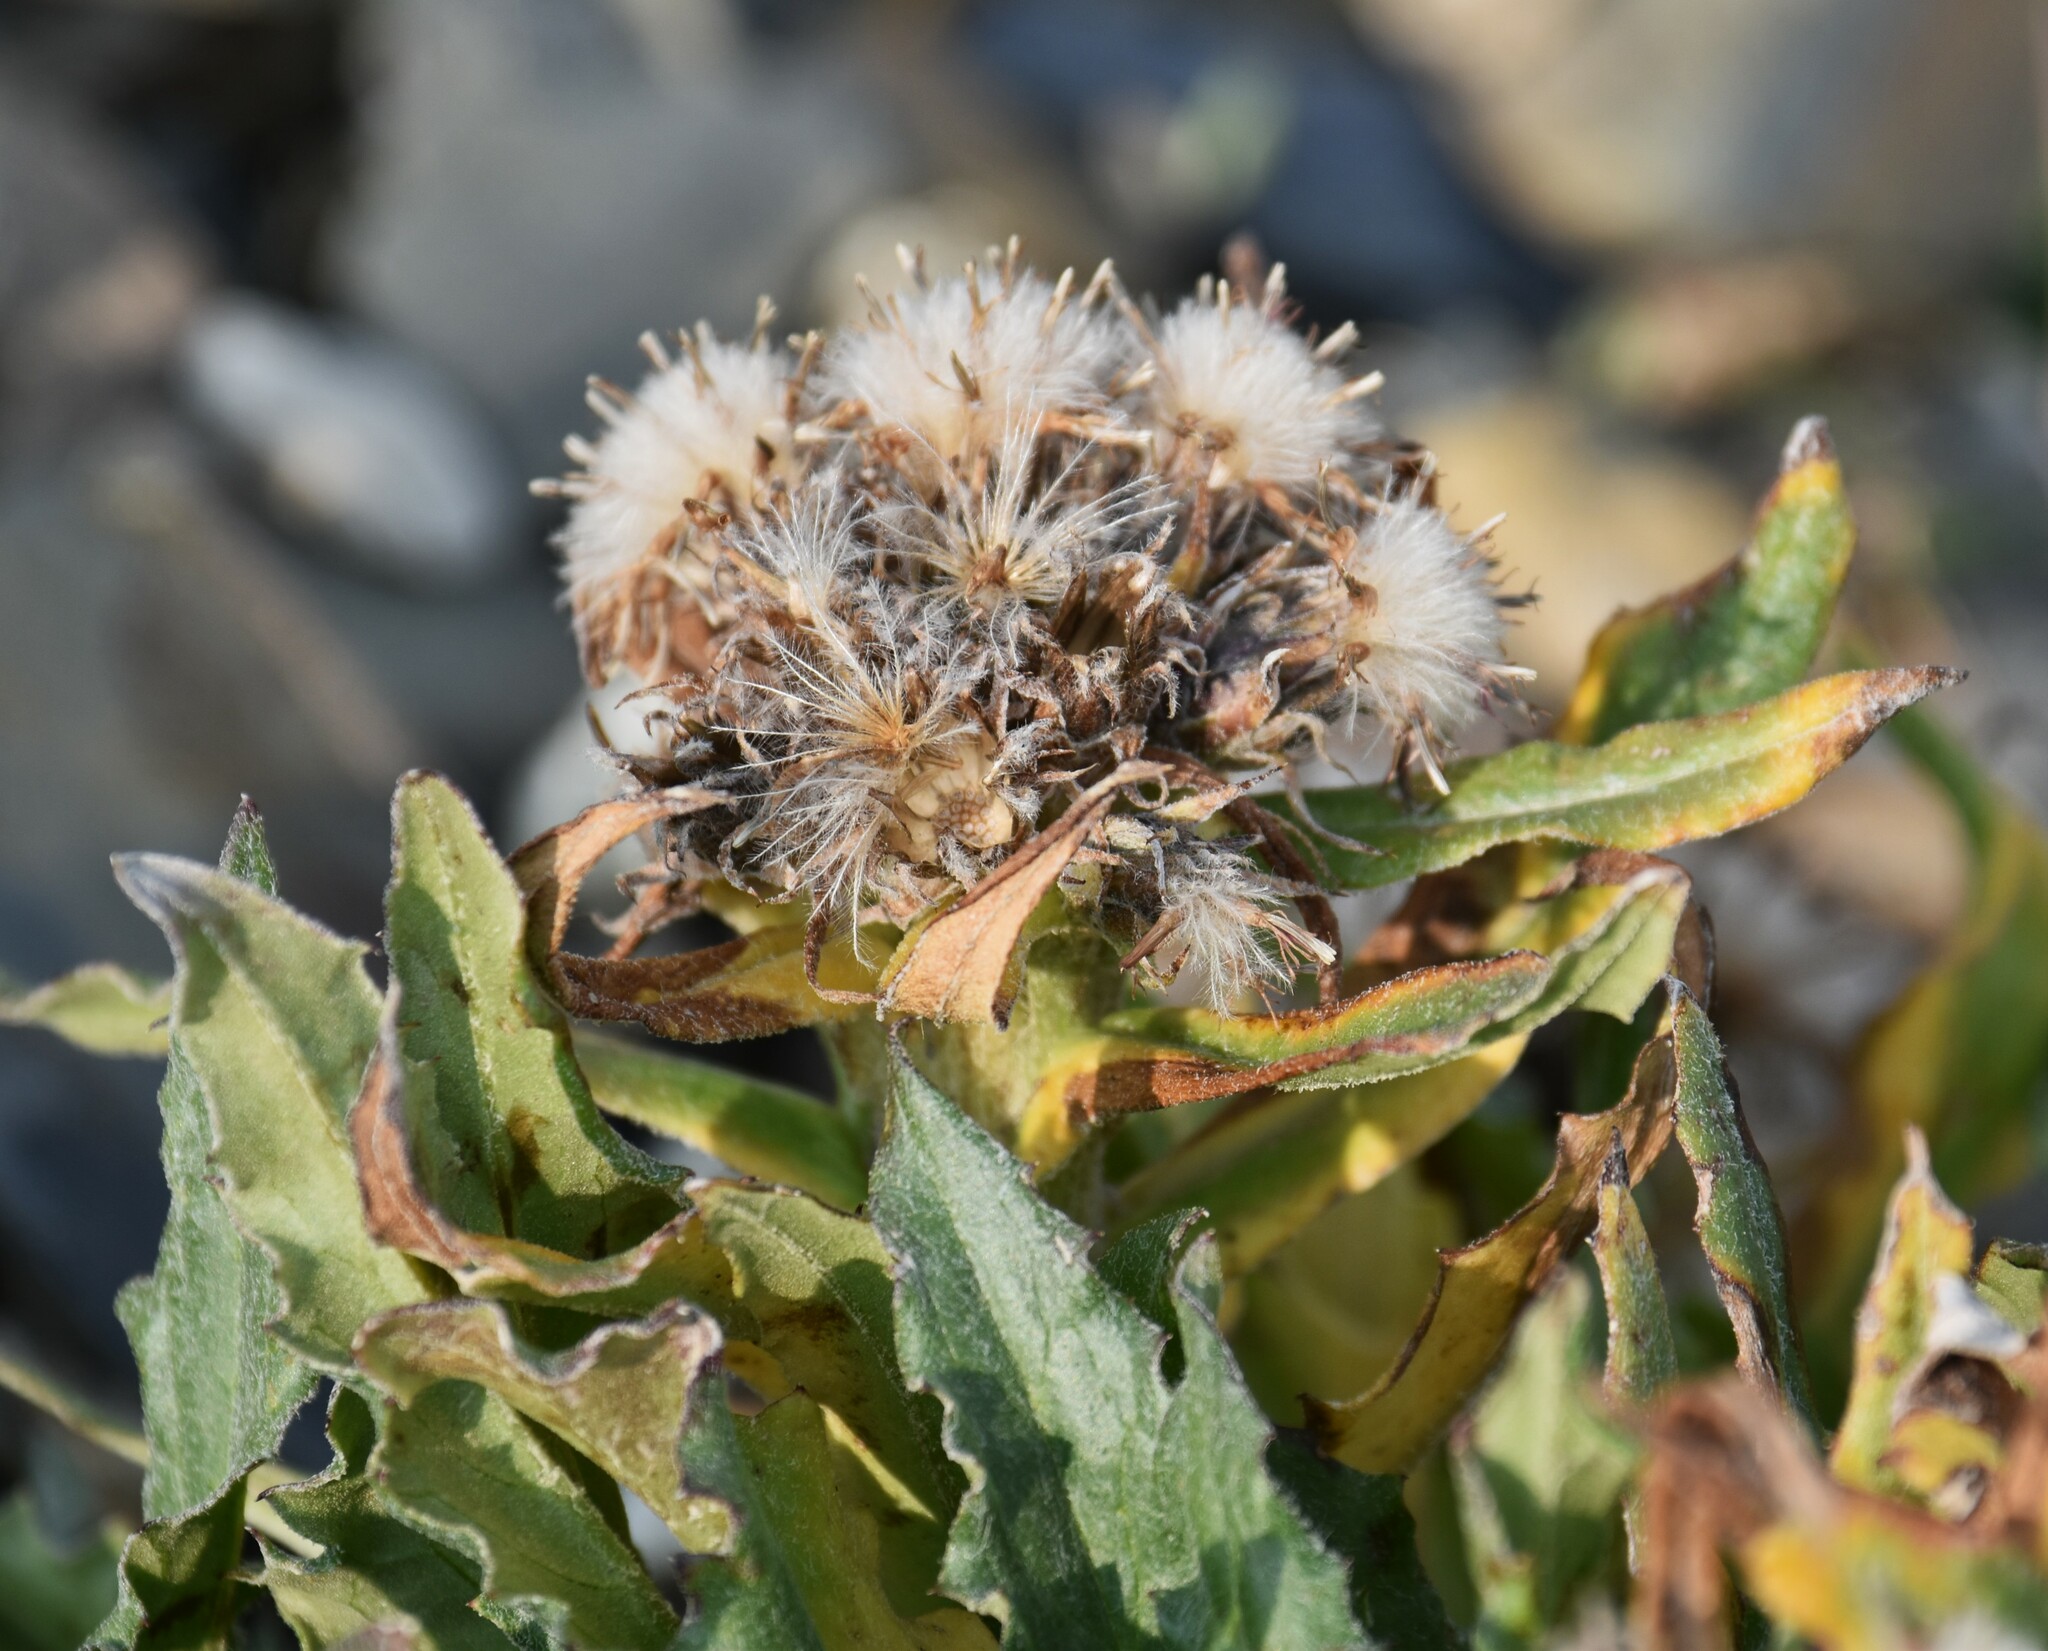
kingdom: Plantae
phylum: Tracheophyta
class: Magnoliopsida
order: Asterales
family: Asteraceae
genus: Saussurea
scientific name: Saussurea nuda
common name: Chaffless saw-wort
